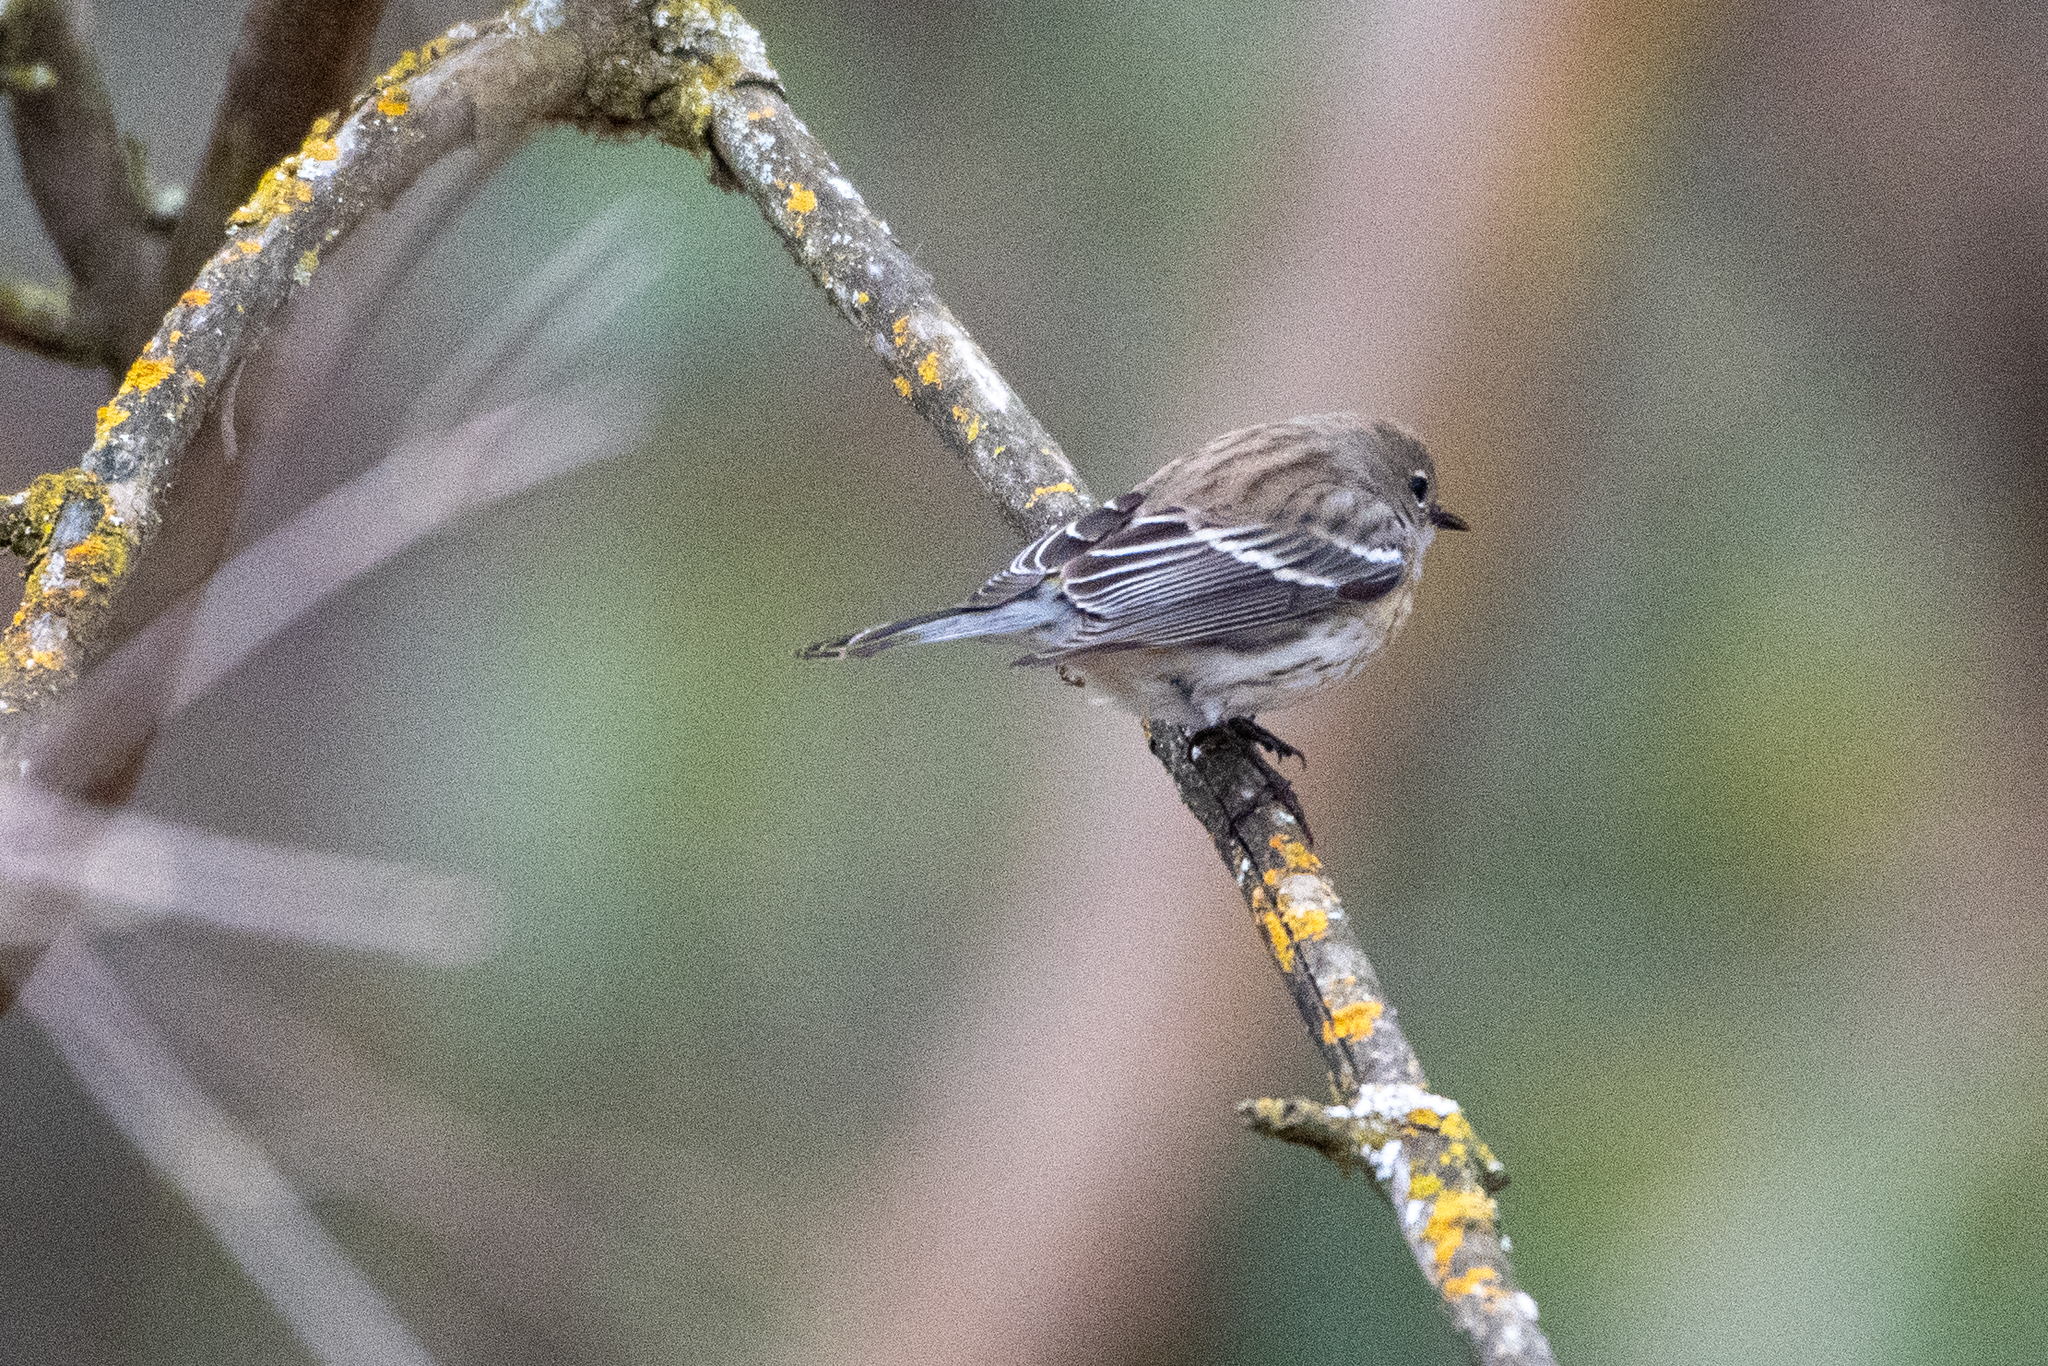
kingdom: Animalia
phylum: Chordata
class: Aves
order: Passeriformes
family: Parulidae
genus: Setophaga
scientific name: Setophaga coronata
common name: Myrtle warbler
